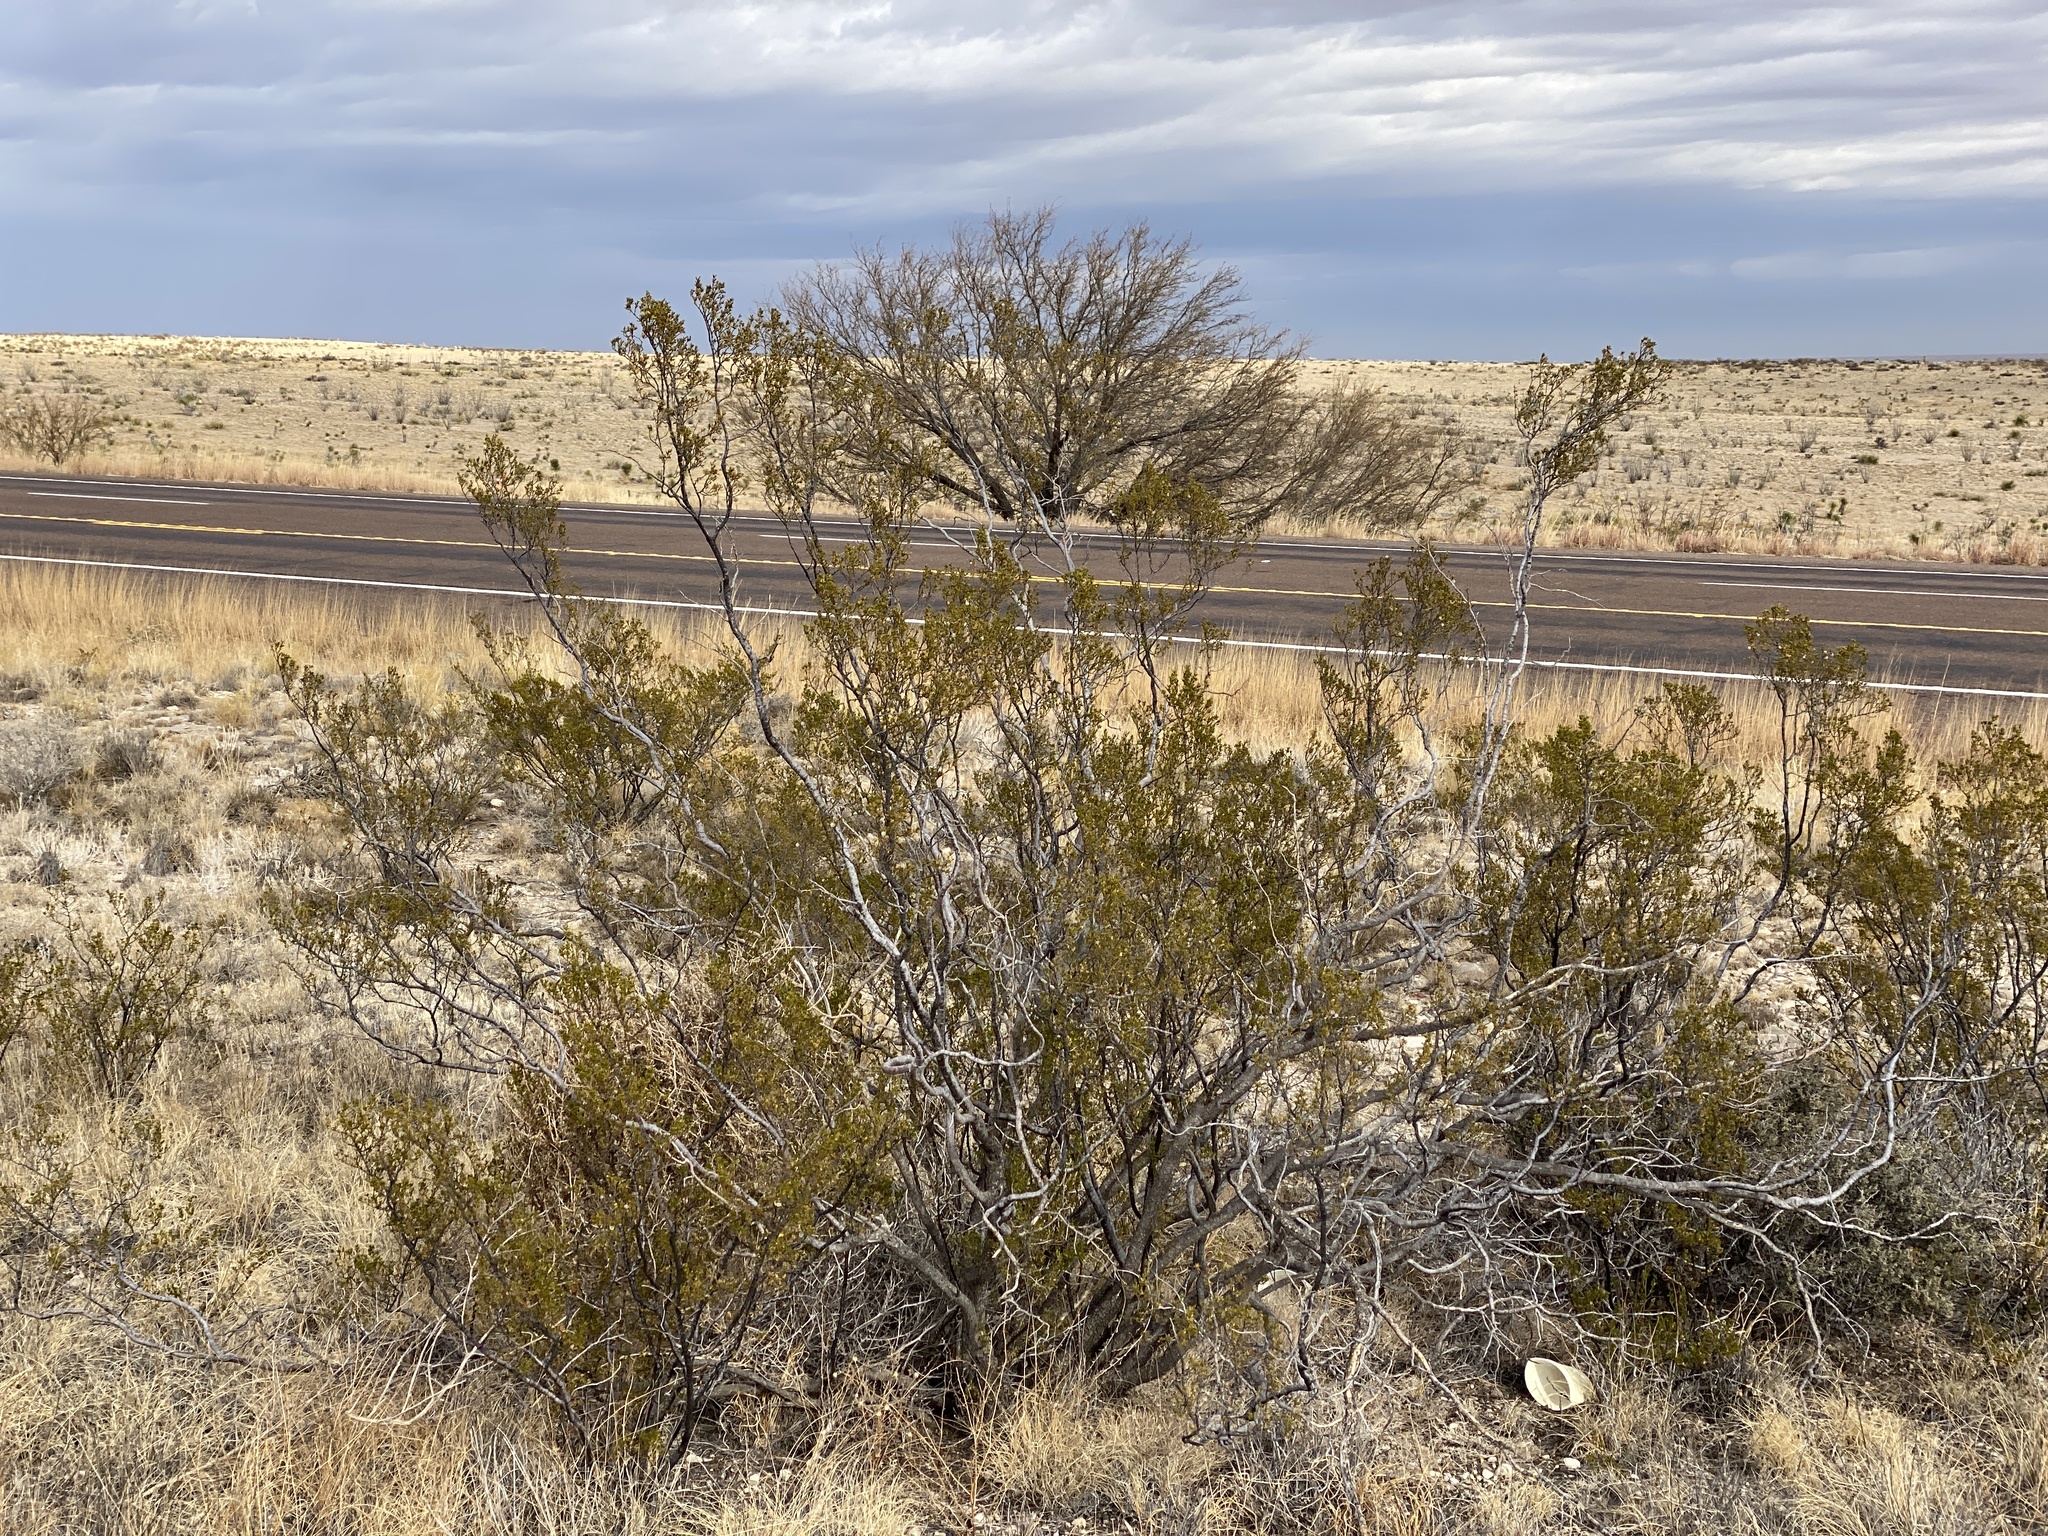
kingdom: Plantae
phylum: Tracheophyta
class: Magnoliopsida
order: Zygophyllales
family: Zygophyllaceae
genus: Larrea
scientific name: Larrea tridentata
